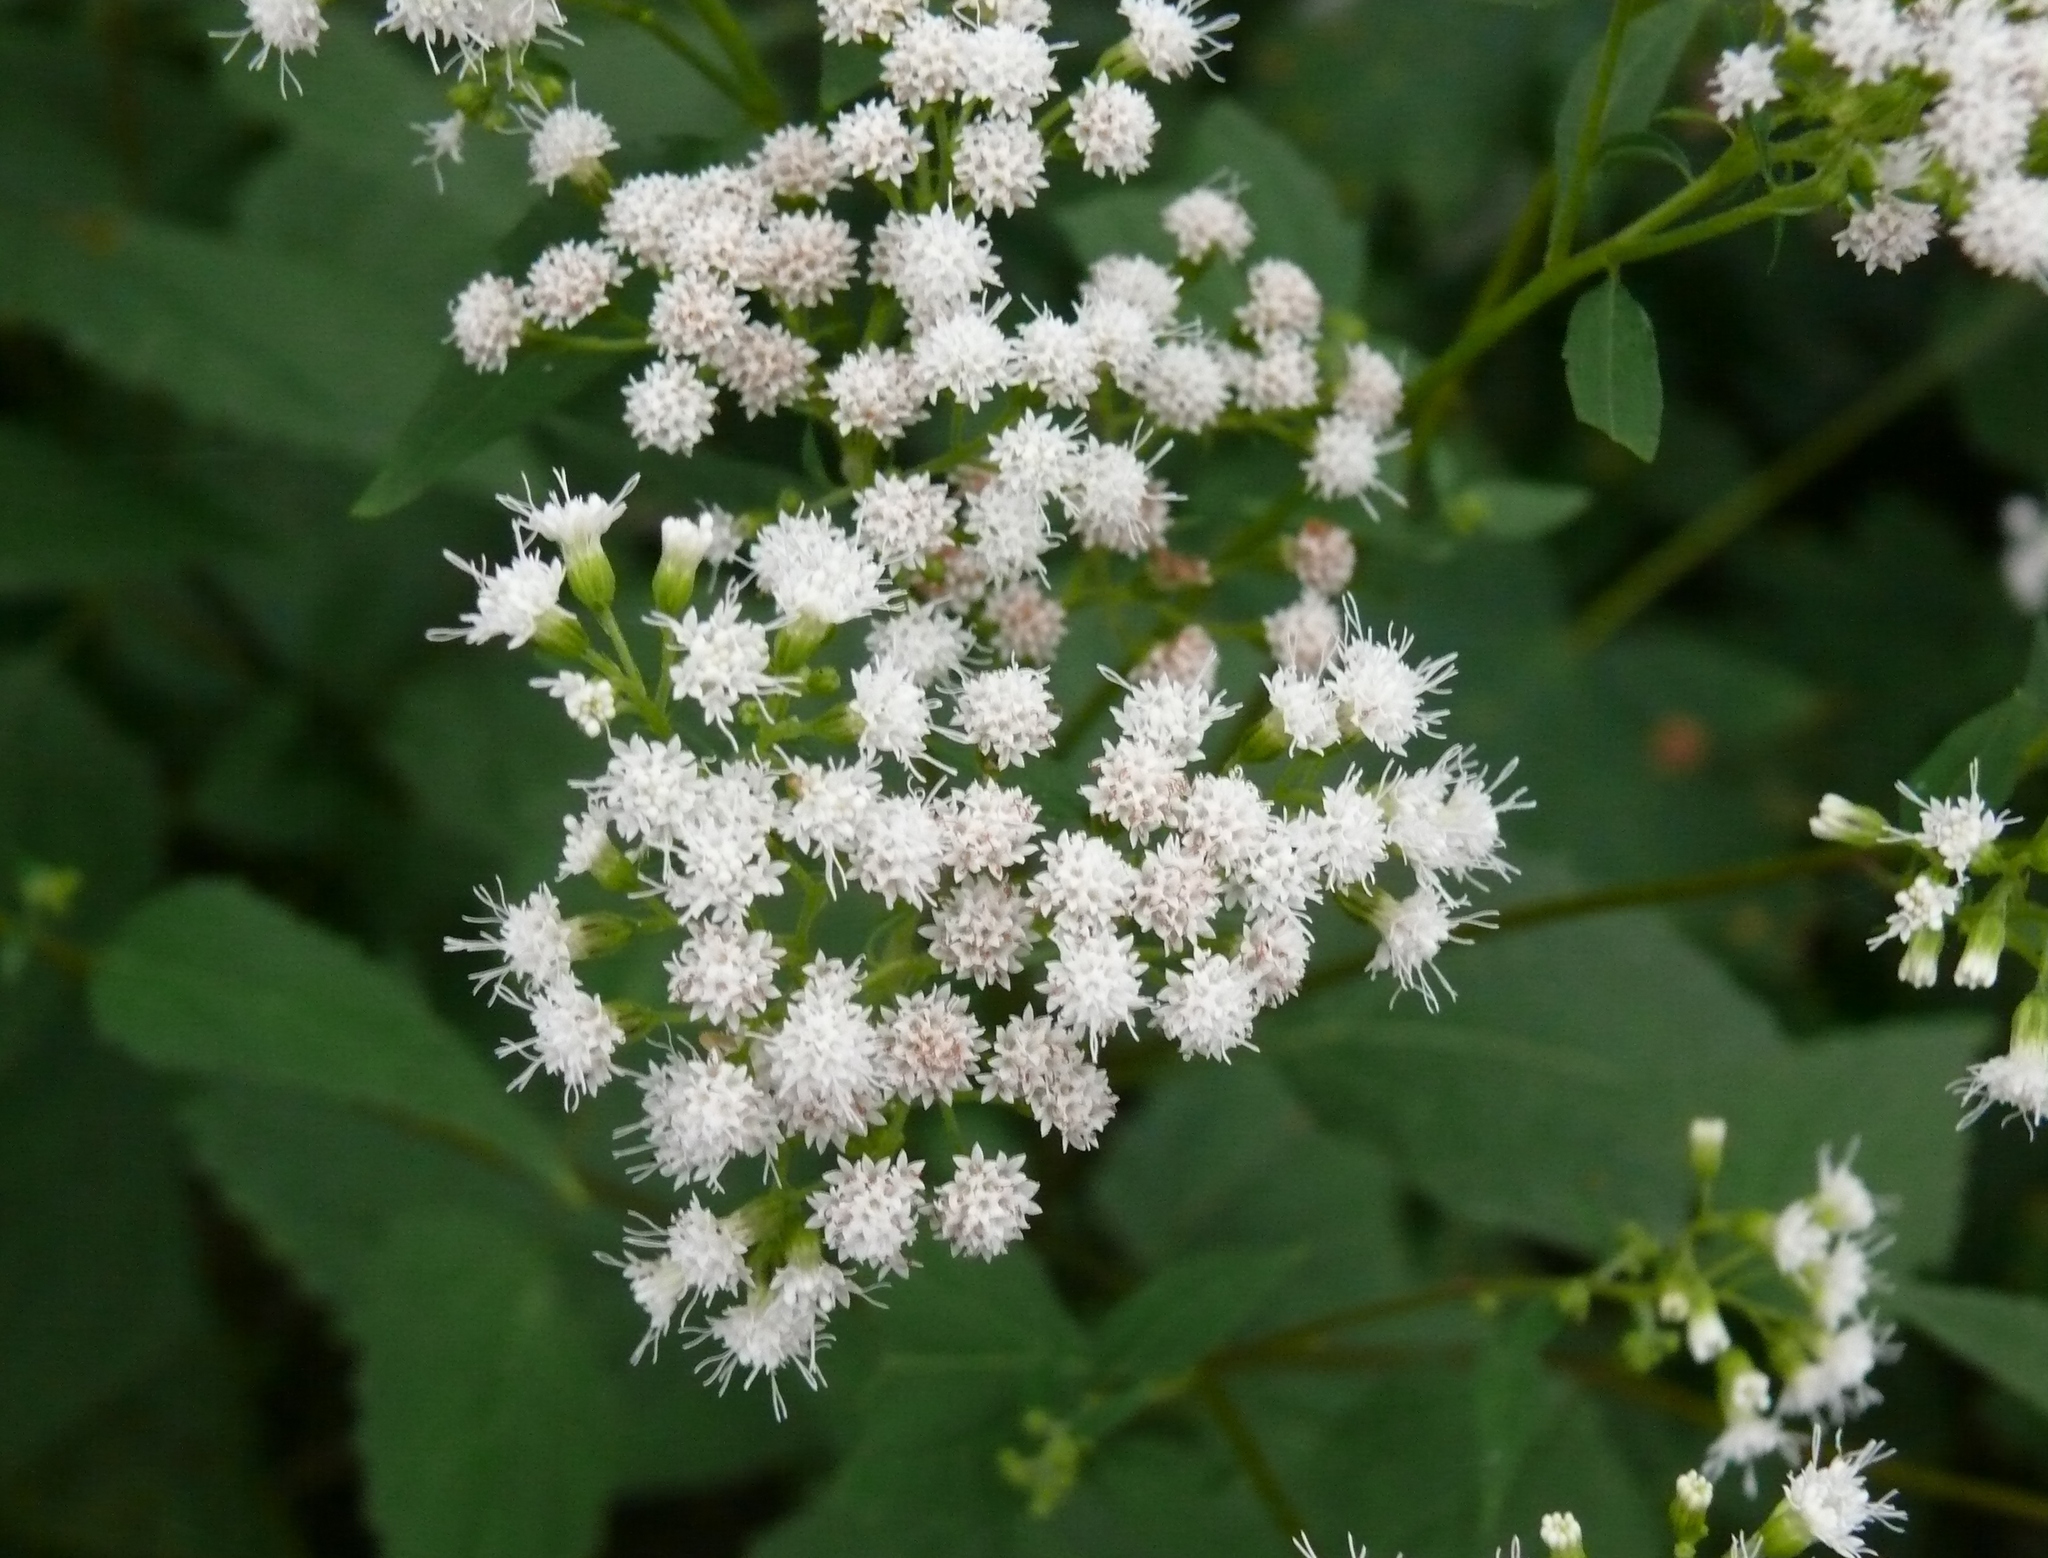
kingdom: Plantae
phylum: Tracheophyta
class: Magnoliopsida
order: Asterales
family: Asteraceae
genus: Ageratina
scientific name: Ageratina altissima
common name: White snakeroot
